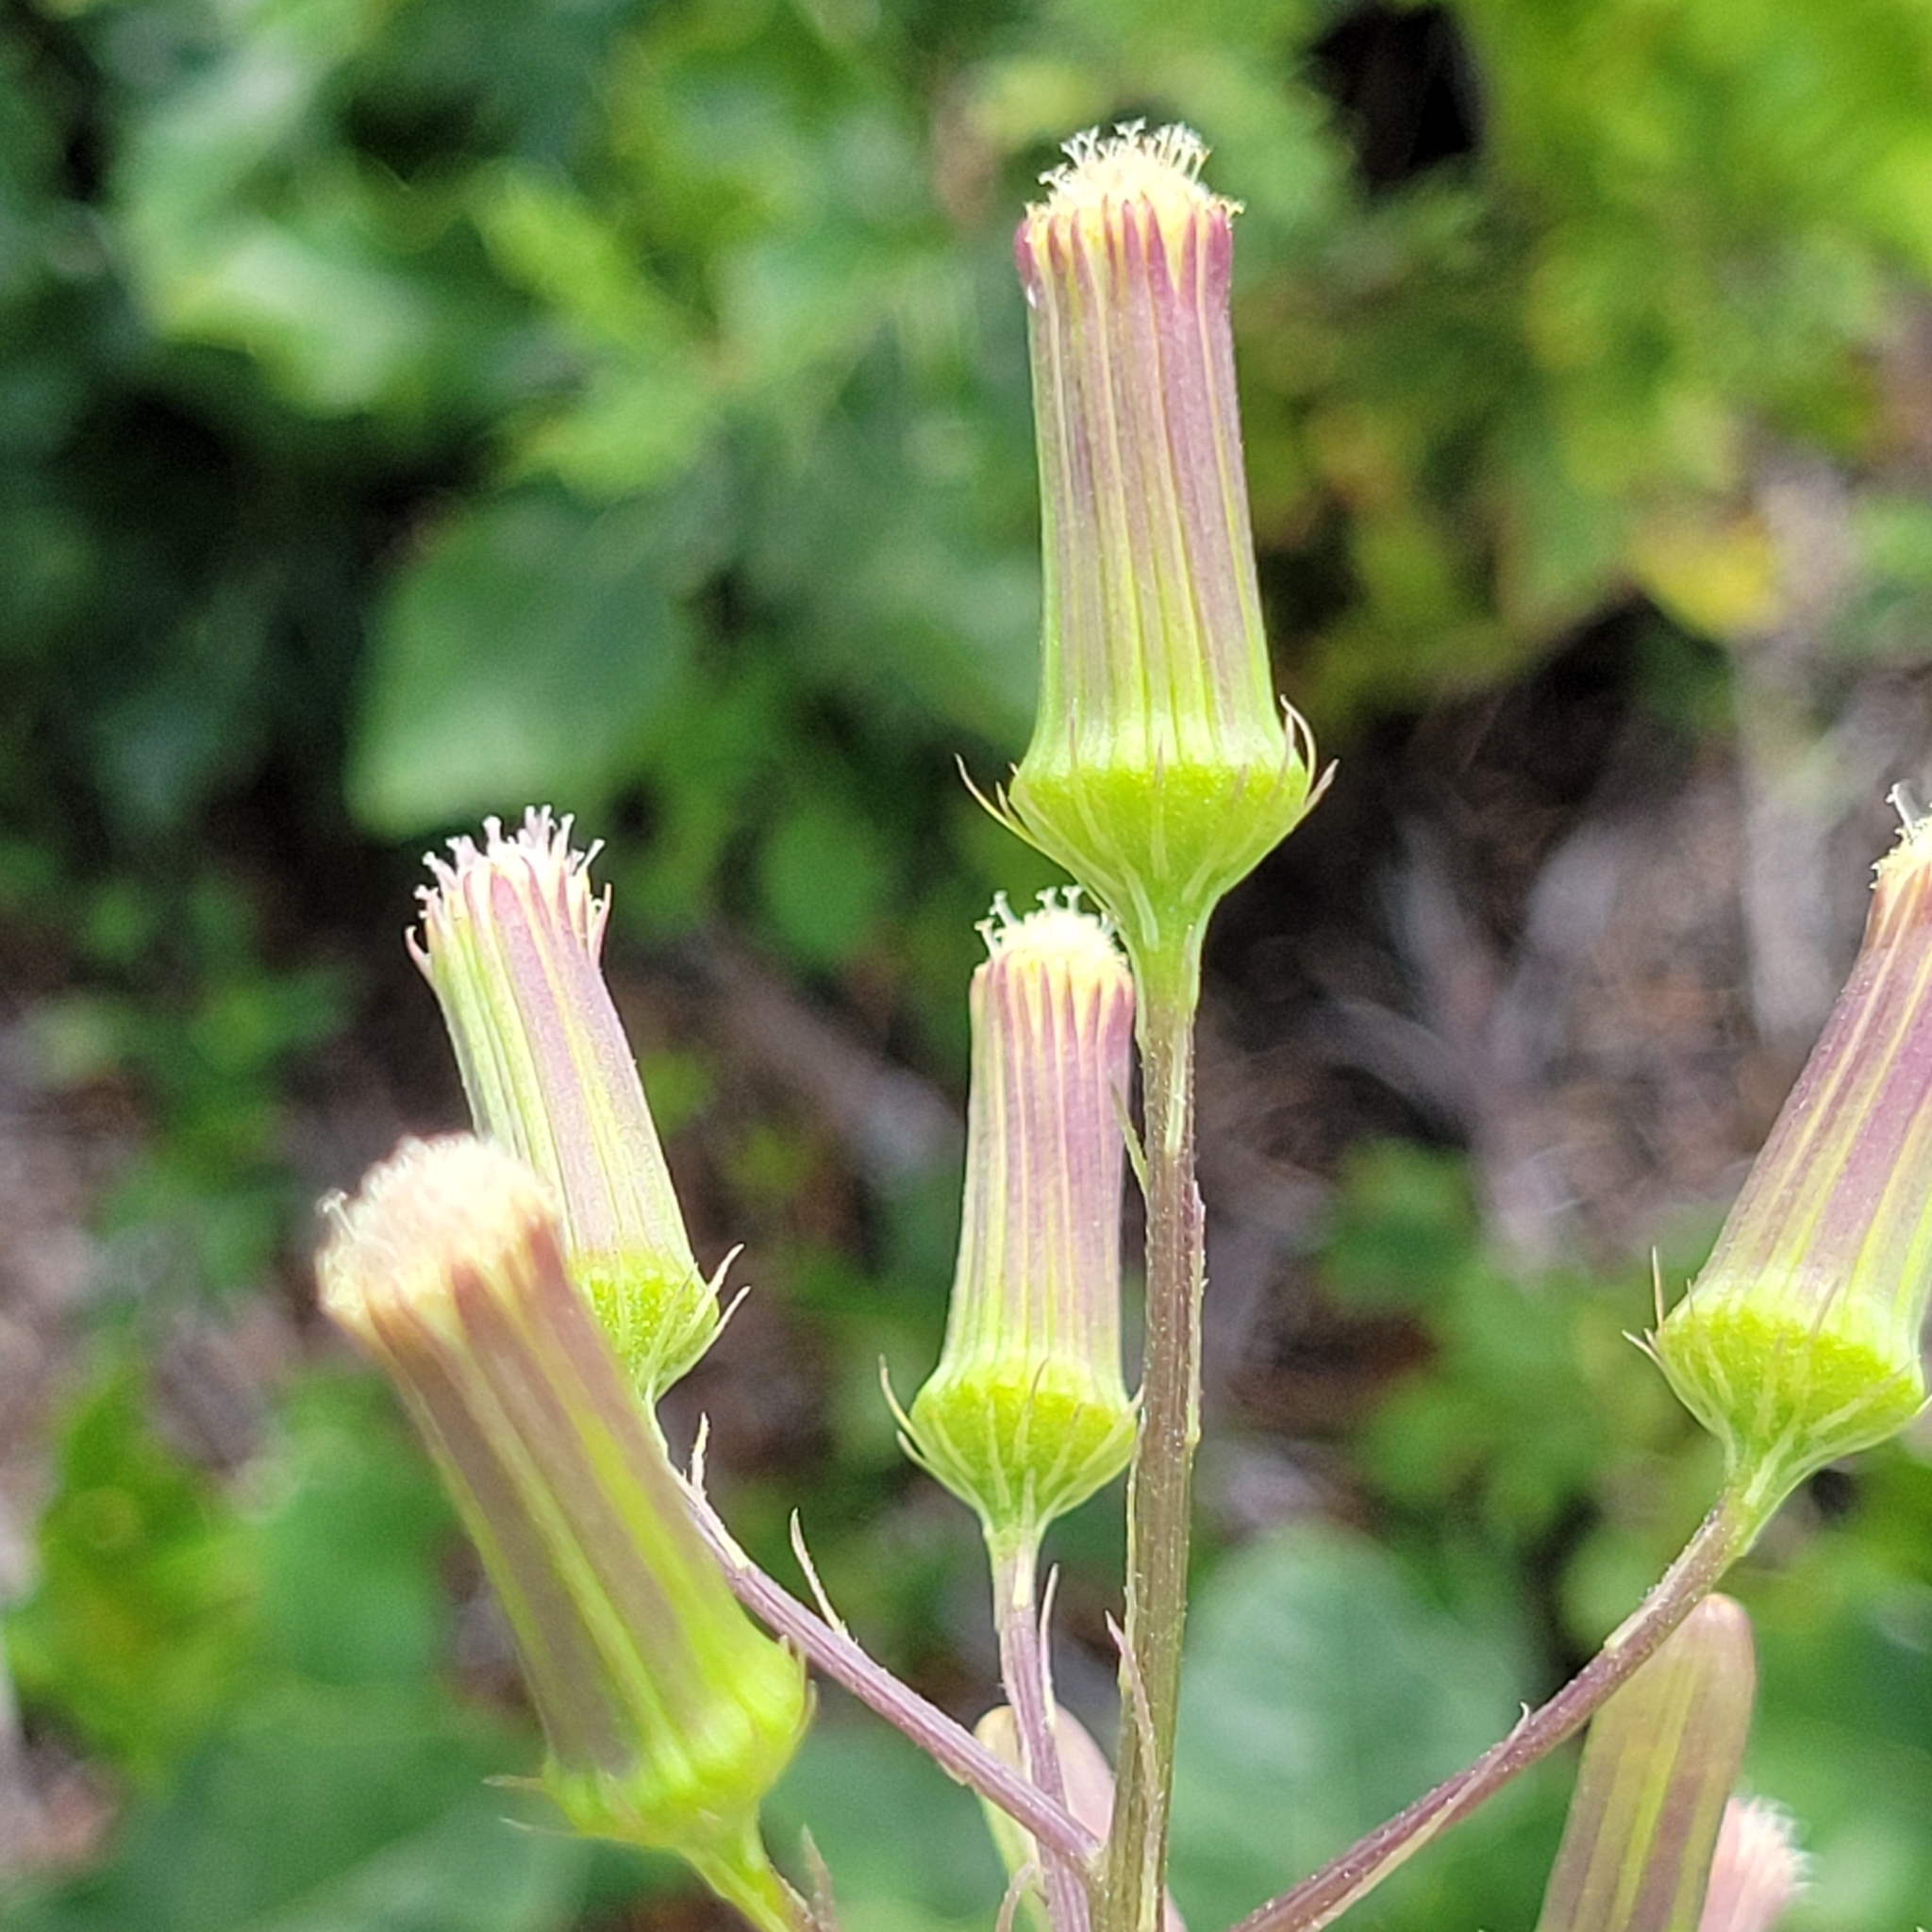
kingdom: Plantae
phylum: Tracheophyta
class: Magnoliopsida
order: Asterales
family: Asteraceae
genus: Erechtites
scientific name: Erechtites hieraciifolius
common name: American burnweed
